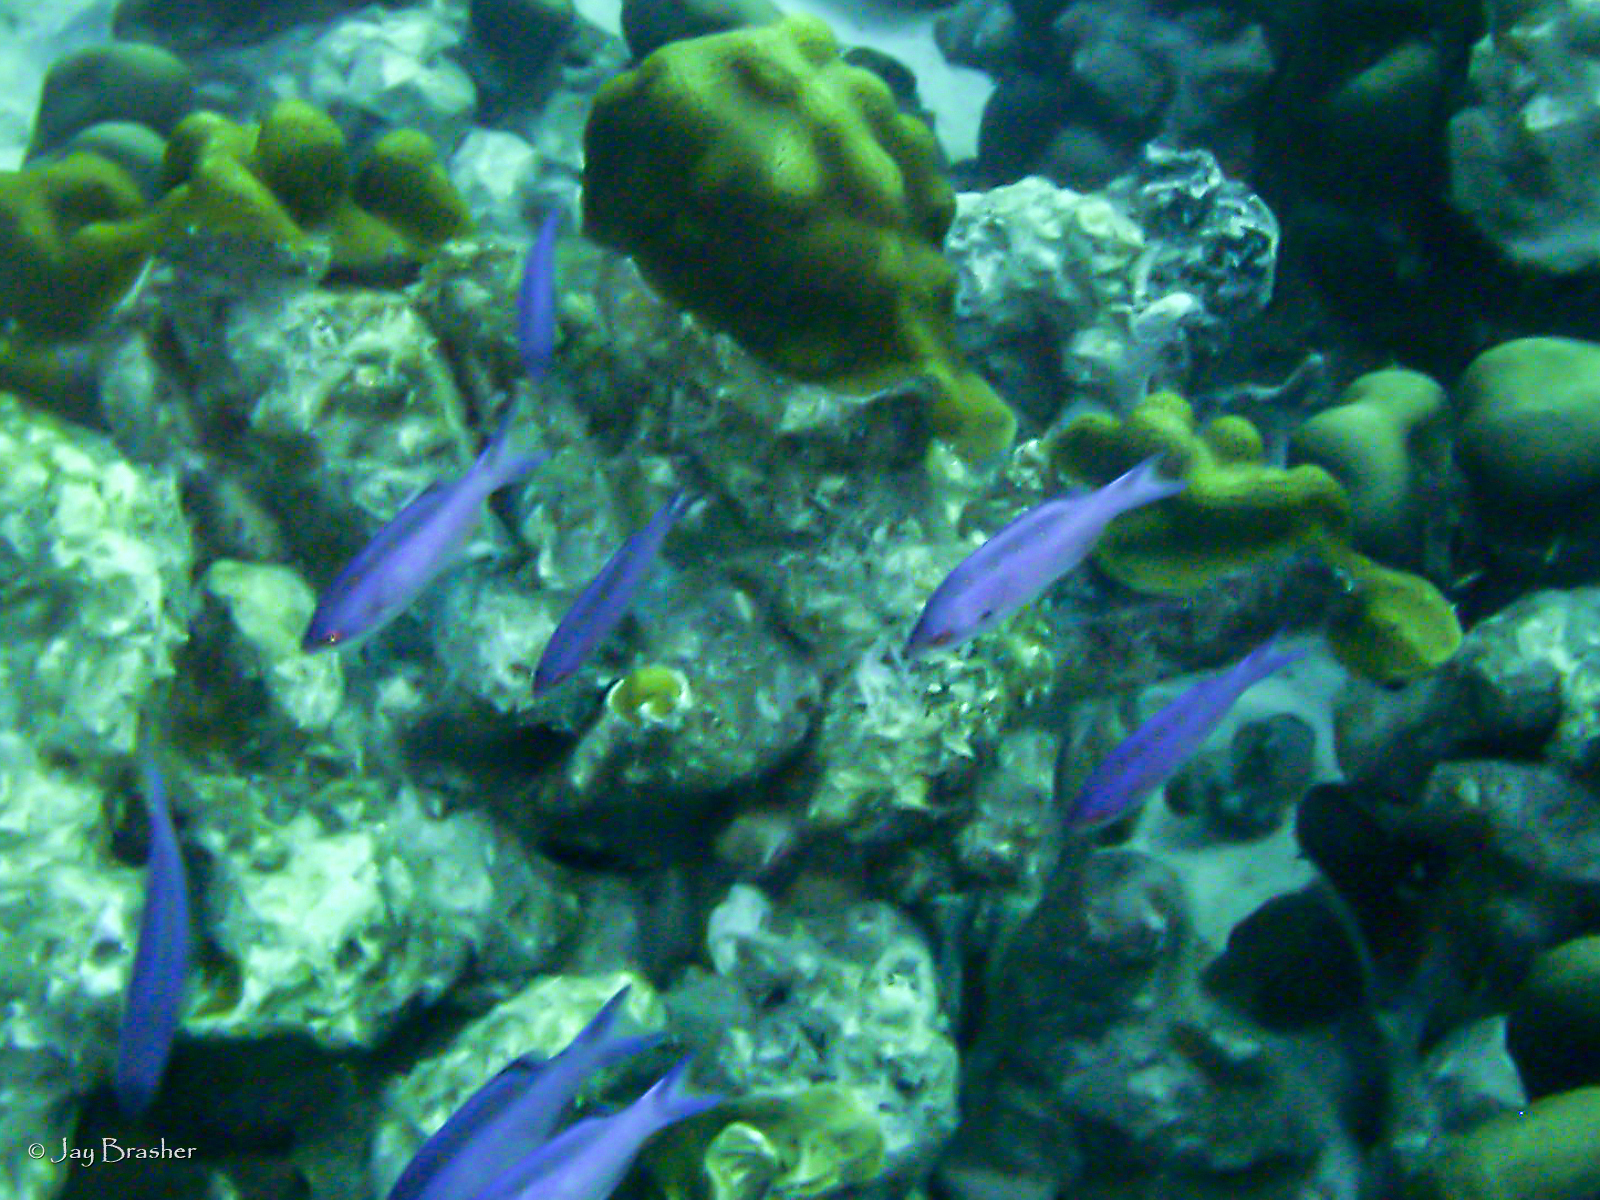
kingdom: Animalia
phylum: Chordata
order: Perciformes
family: Labridae
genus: Bodianus
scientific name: Bodianus
